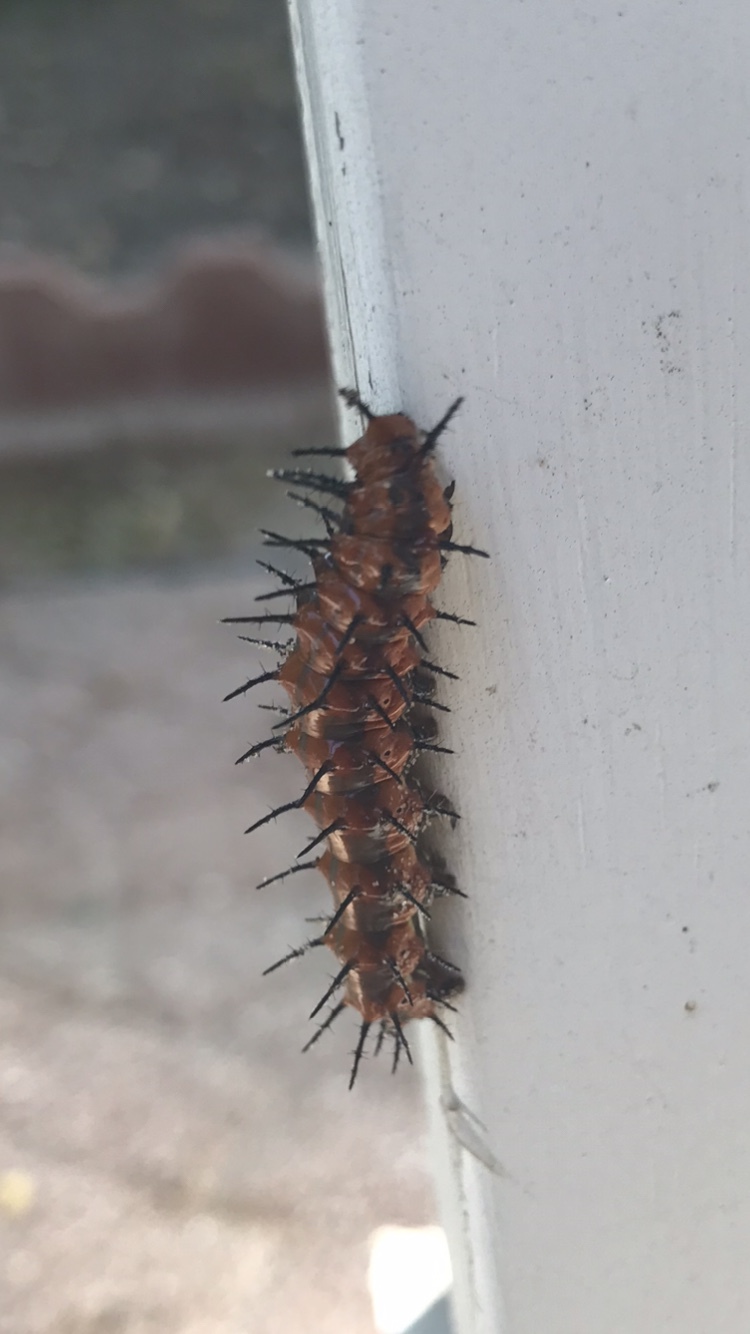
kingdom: Animalia
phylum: Arthropoda
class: Insecta
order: Lepidoptera
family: Nymphalidae
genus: Dione
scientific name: Dione vanillae
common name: Gulf fritillary
